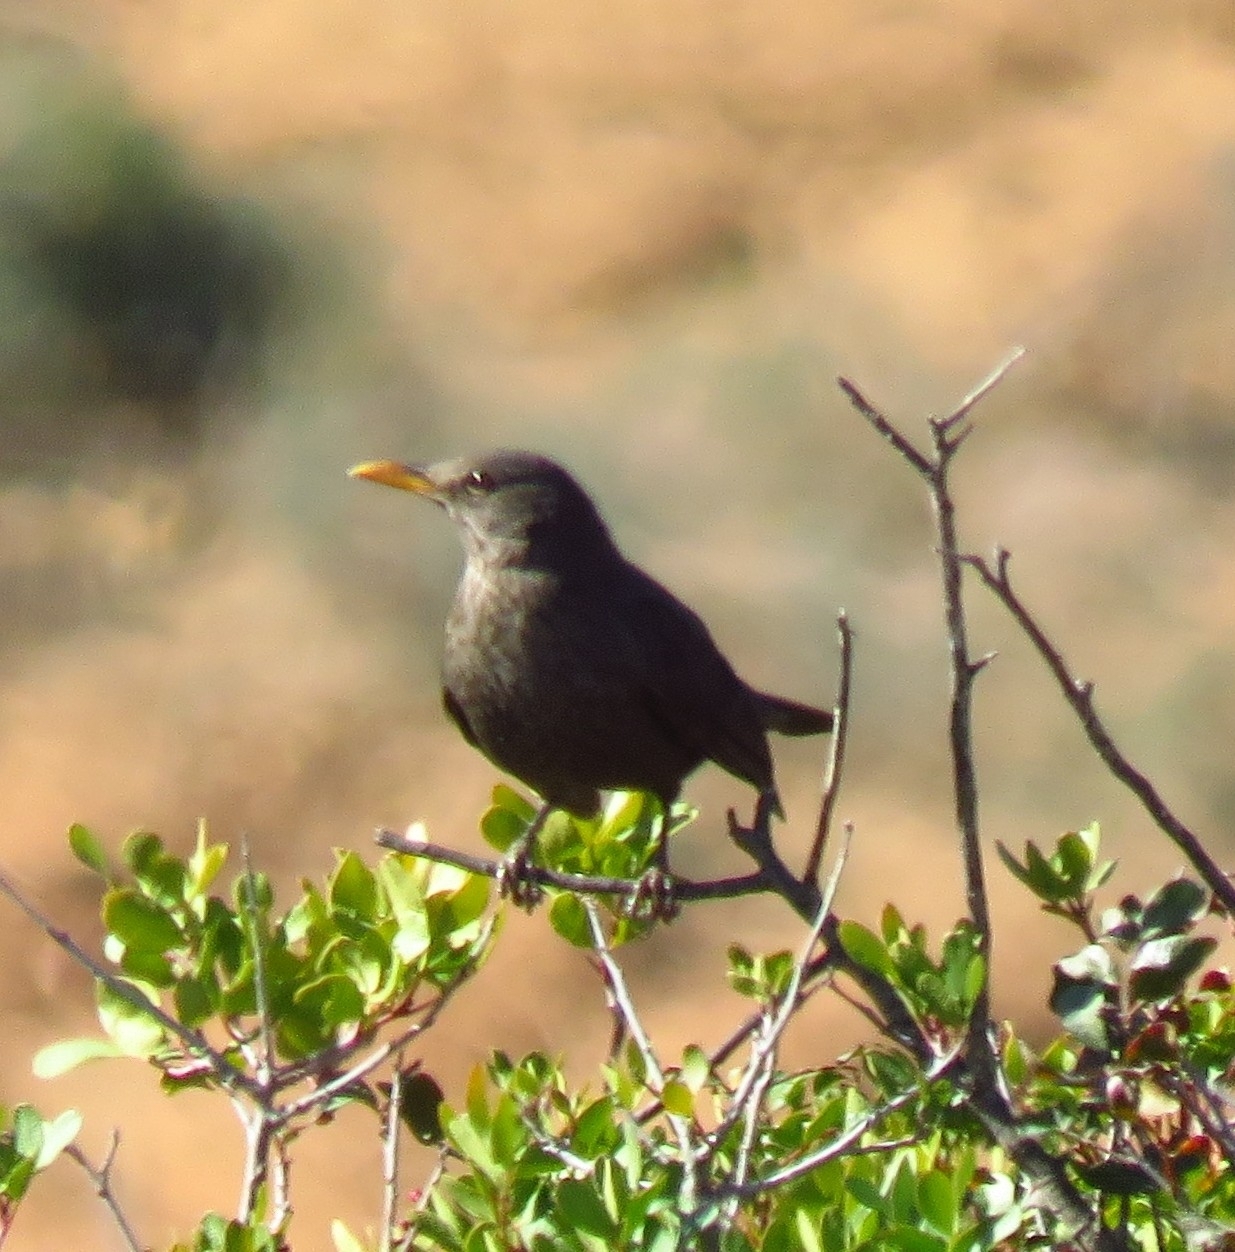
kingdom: Animalia
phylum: Chordata
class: Aves
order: Passeriformes
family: Turdidae
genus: Turdus
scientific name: Turdus merula
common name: Common blackbird
